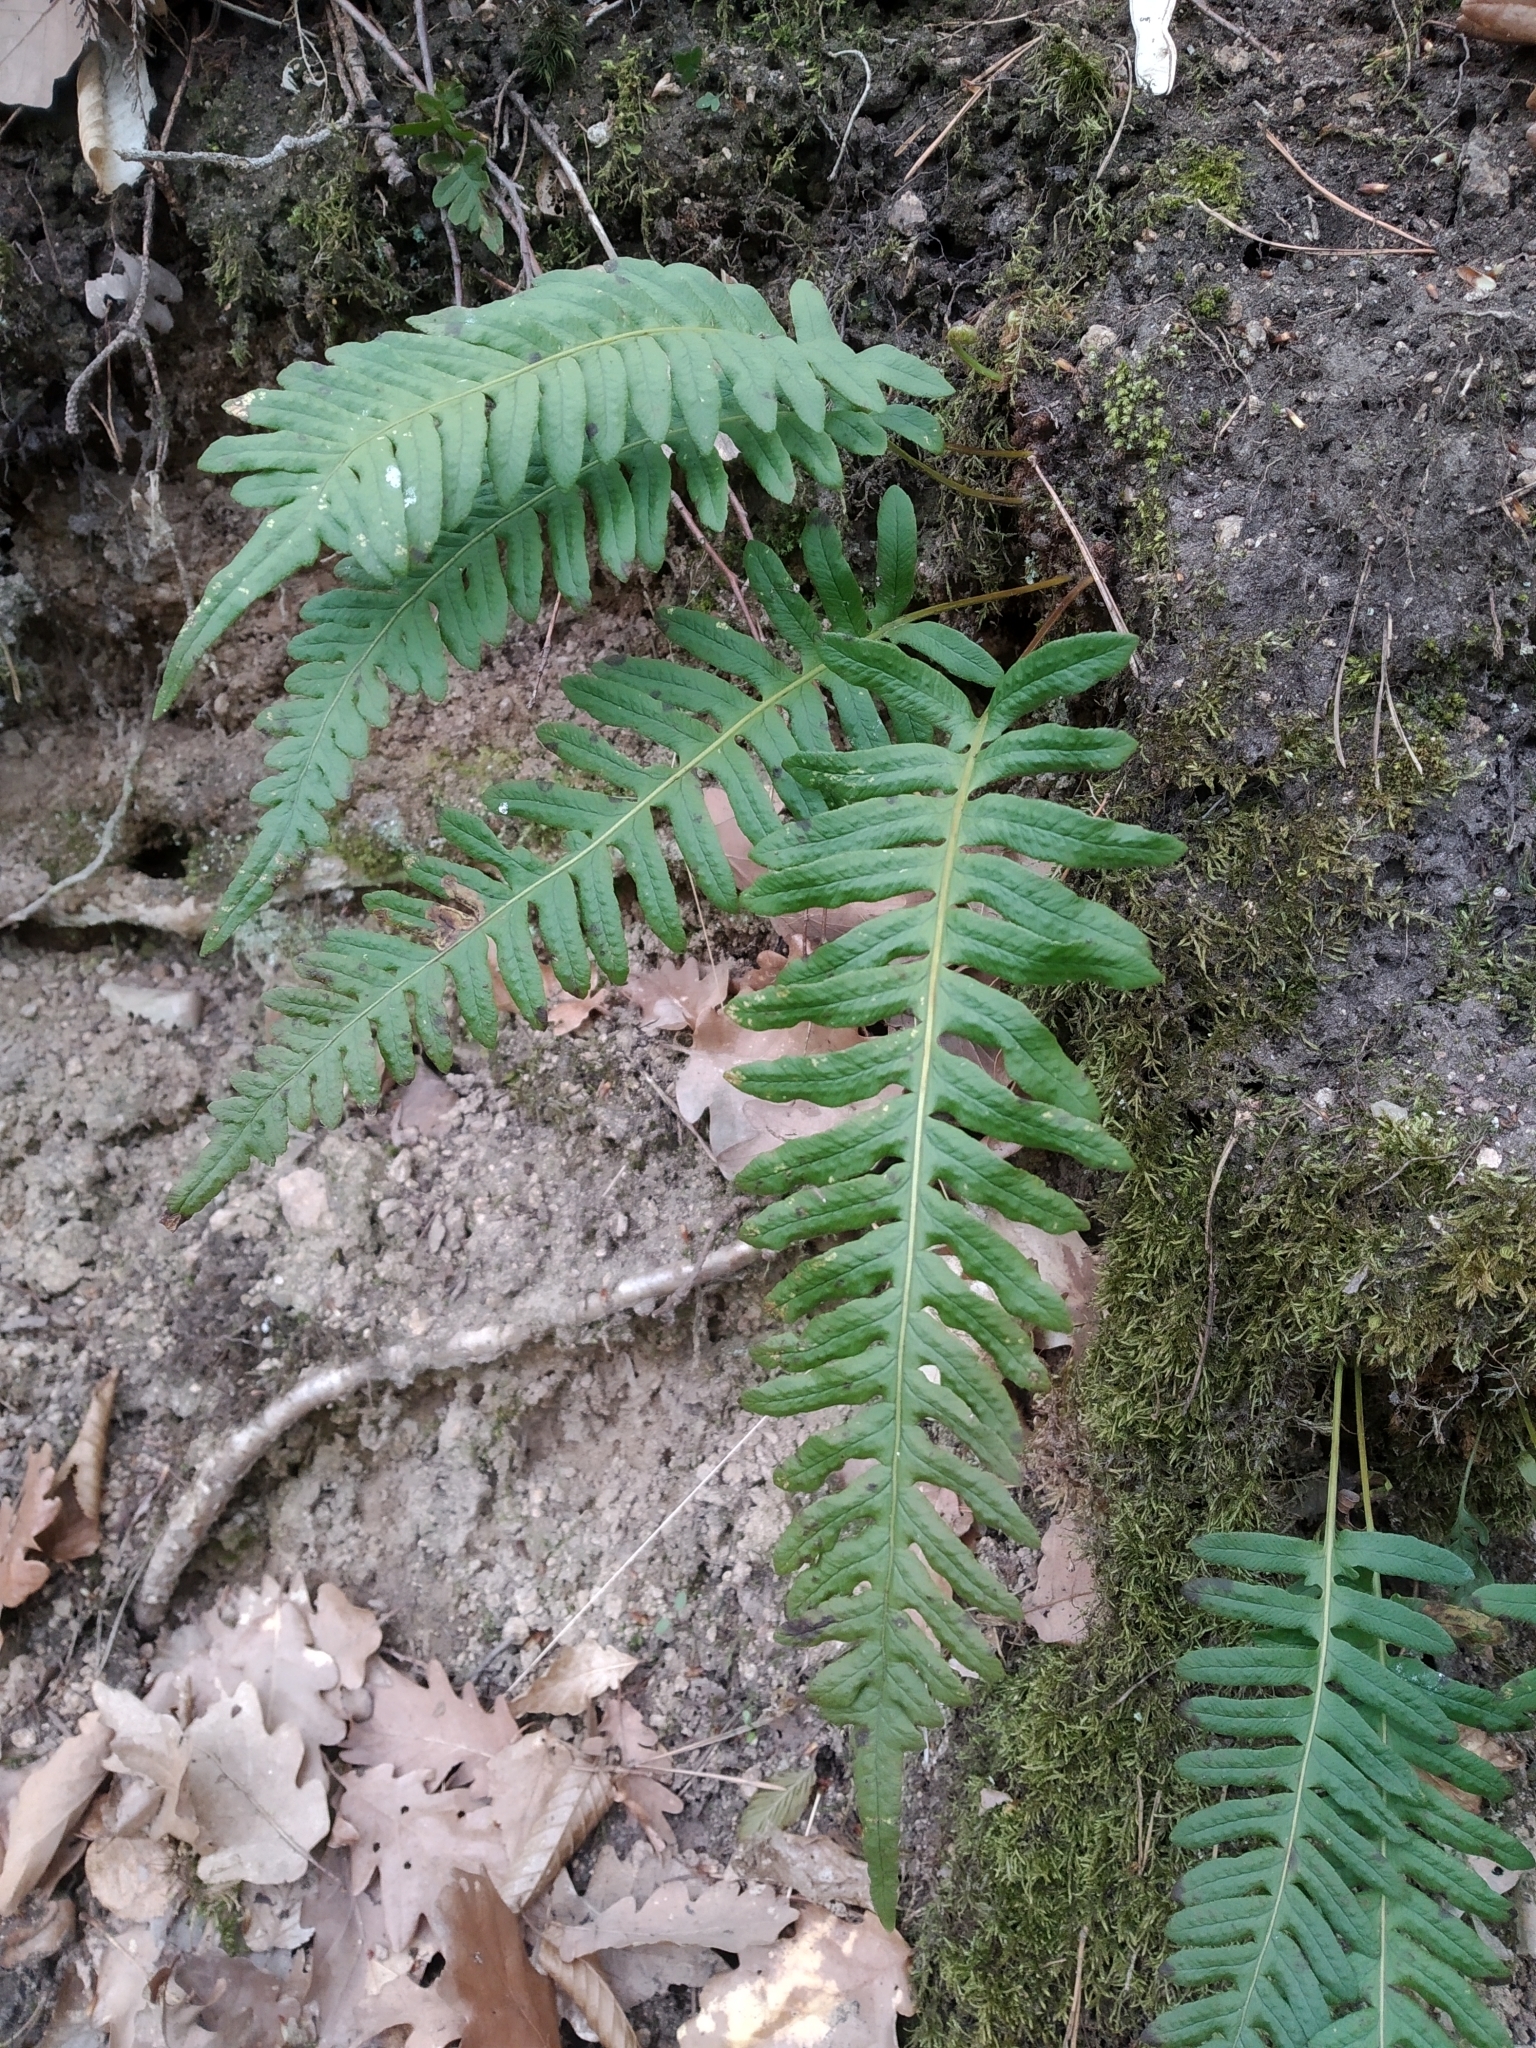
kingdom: Plantae
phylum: Tracheophyta
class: Polypodiopsida
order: Polypodiales
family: Polypodiaceae
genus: Polypodium
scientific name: Polypodium vulgare
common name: Common polypody
